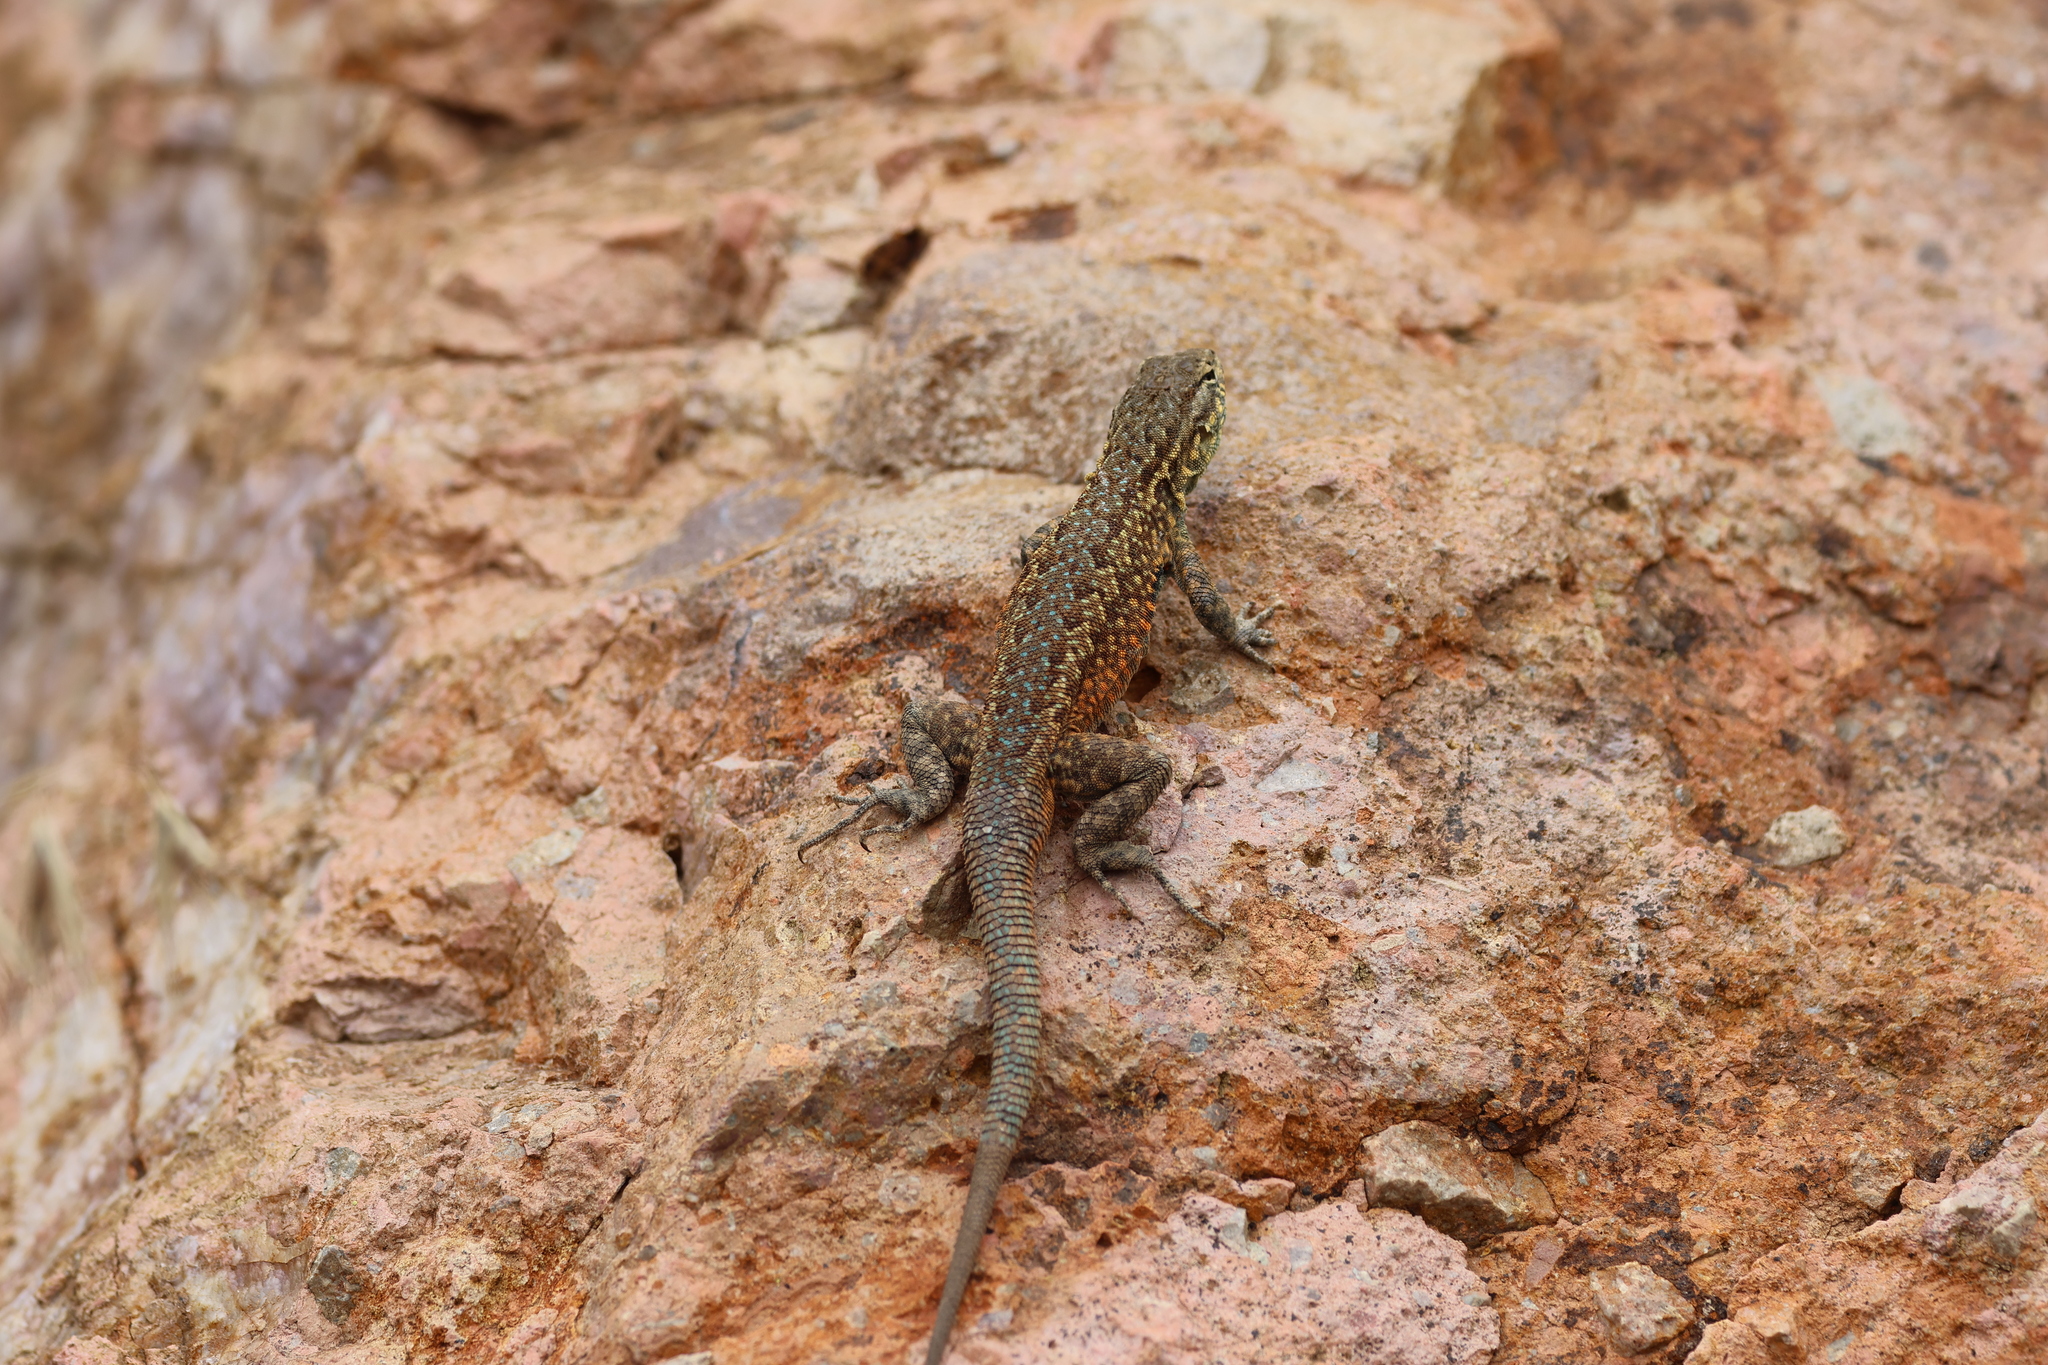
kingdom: Animalia
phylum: Chordata
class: Squamata
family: Phrynosomatidae
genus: Uta
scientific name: Uta stansburiana
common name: Side-blotched lizard
